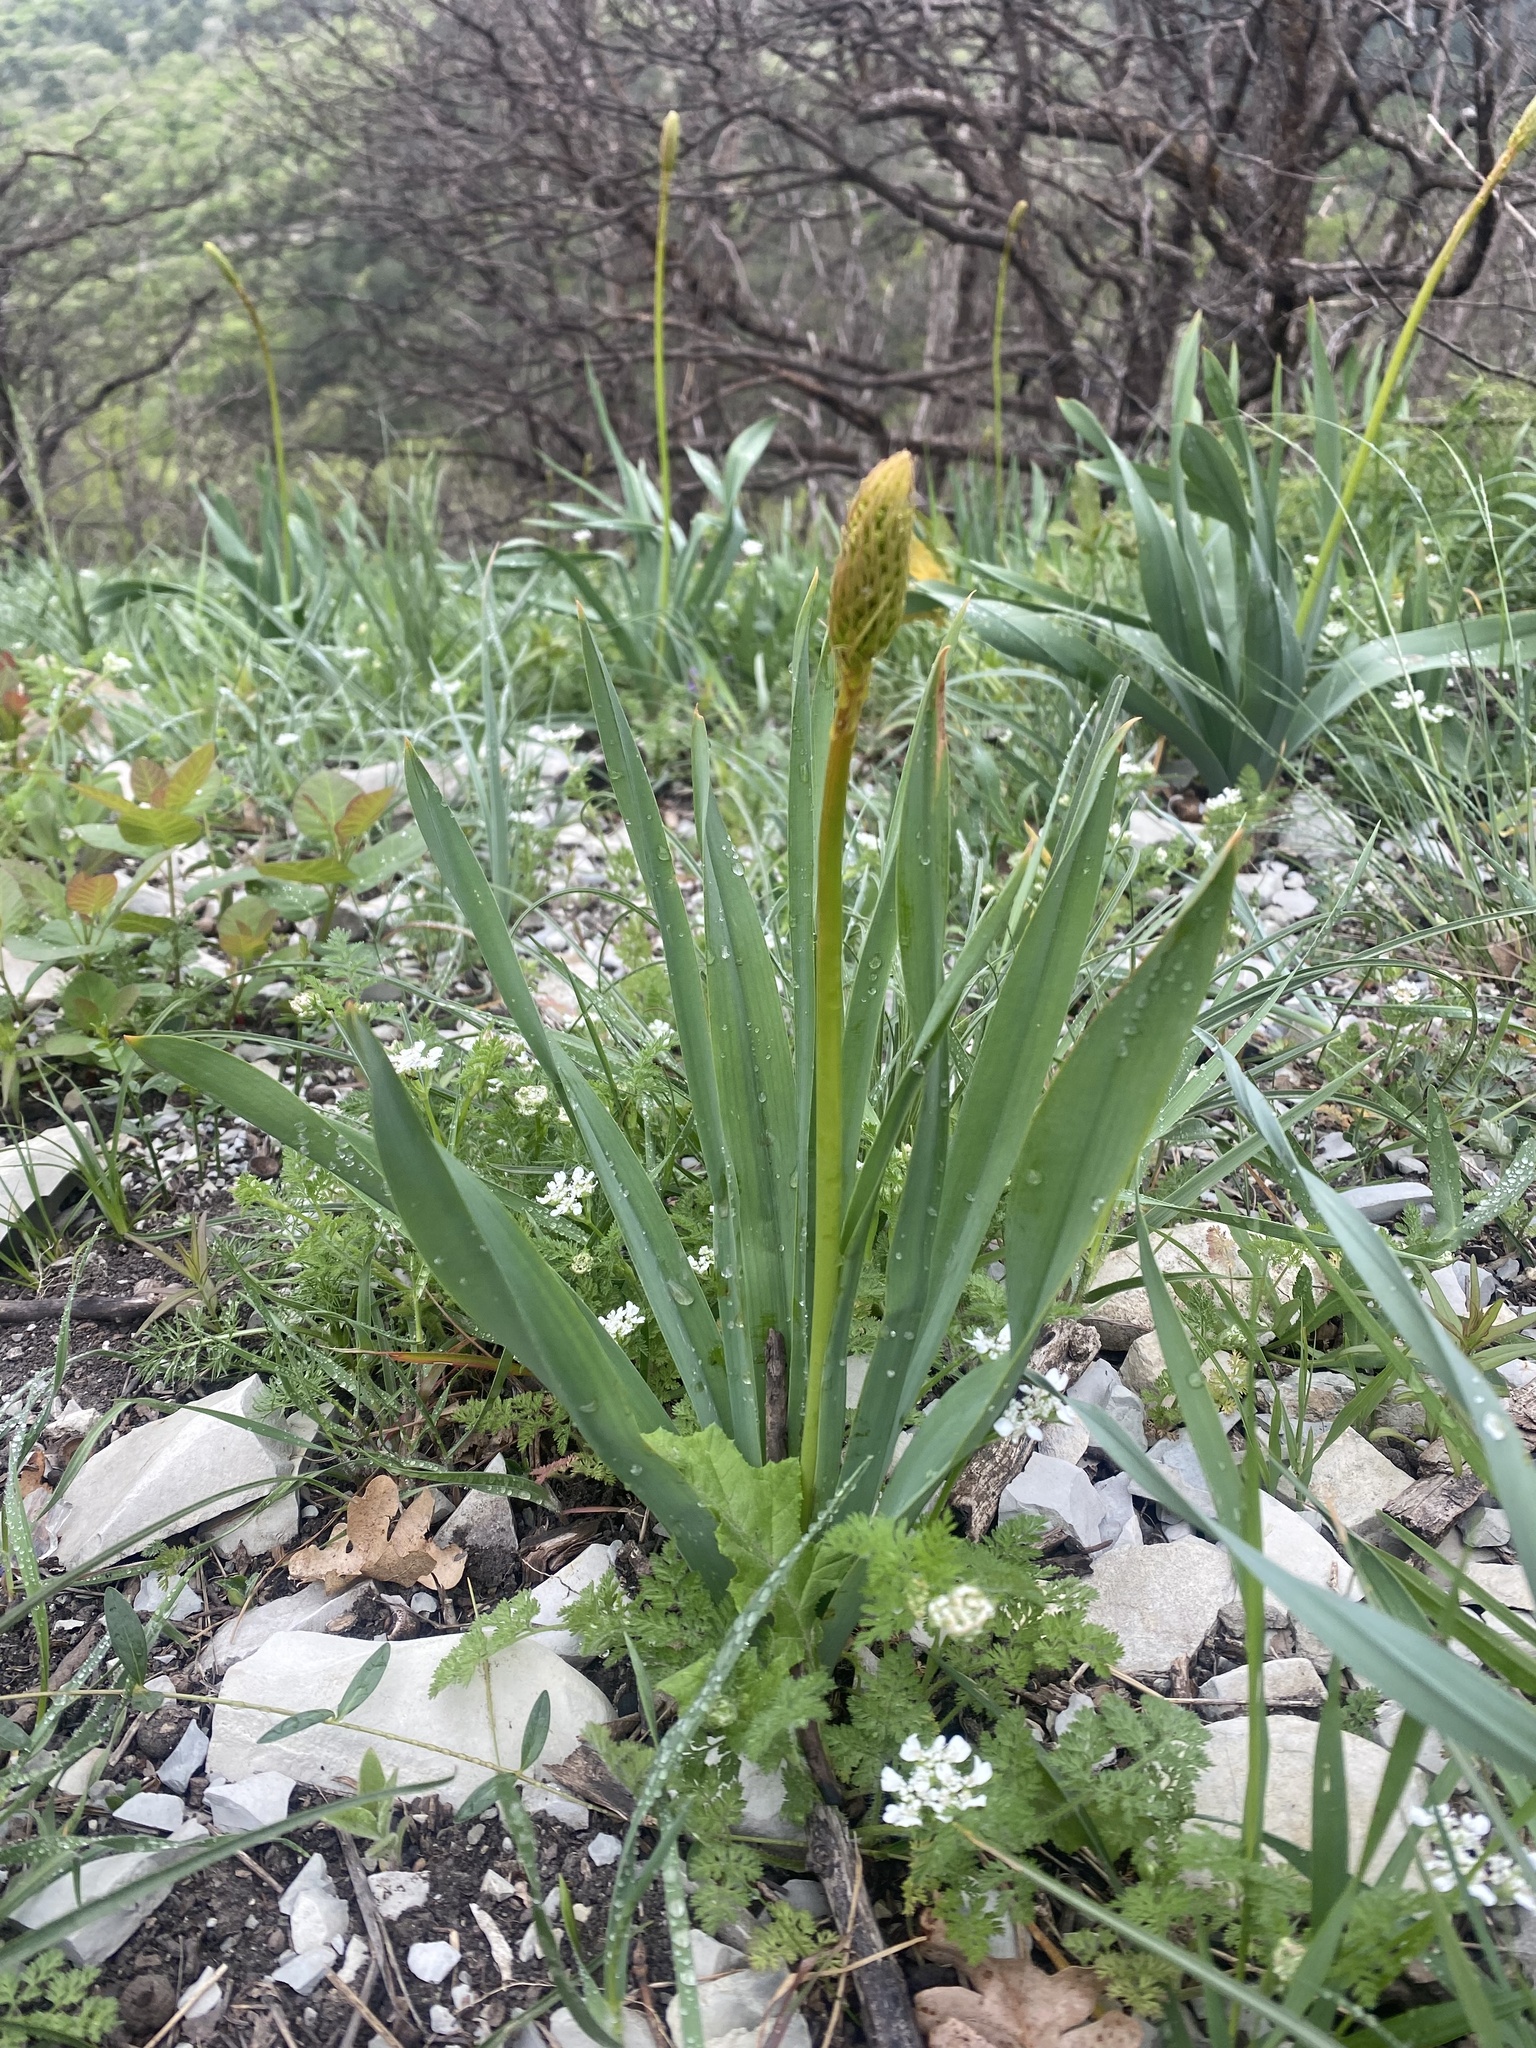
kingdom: Plantae
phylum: Tracheophyta
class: Liliopsida
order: Asparagales
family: Asphodelaceae
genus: Eremurus
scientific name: Eremurus spectabilis
